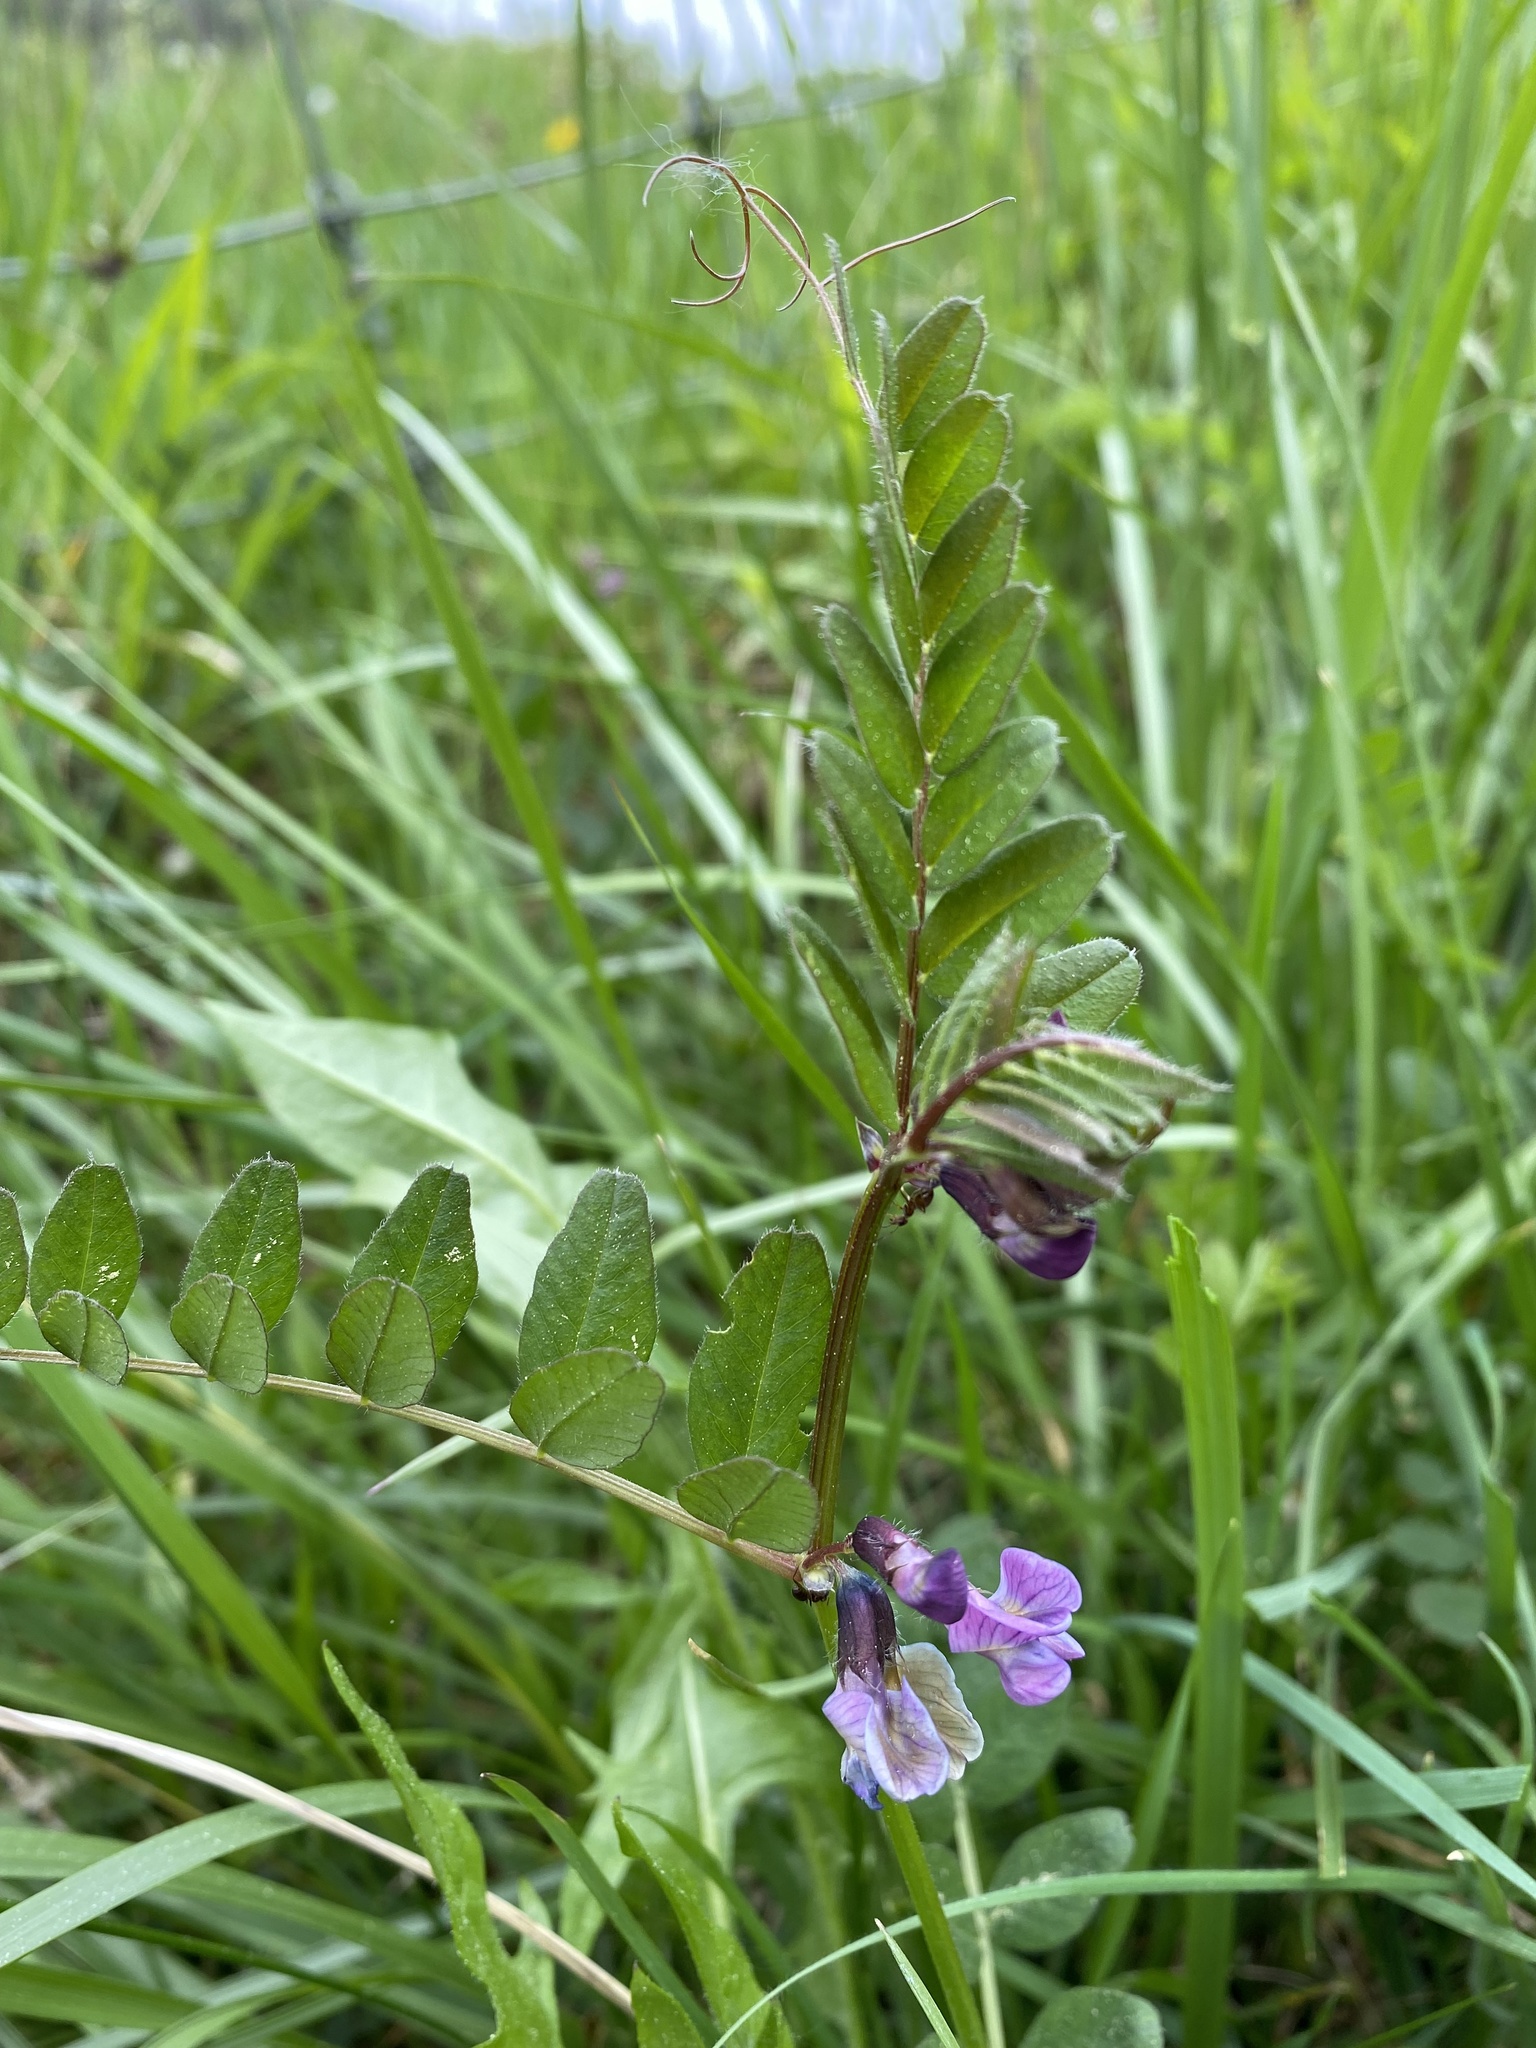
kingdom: Plantae
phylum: Tracheophyta
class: Magnoliopsida
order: Fabales
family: Fabaceae
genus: Vicia
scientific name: Vicia sepium
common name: Bush vetch
